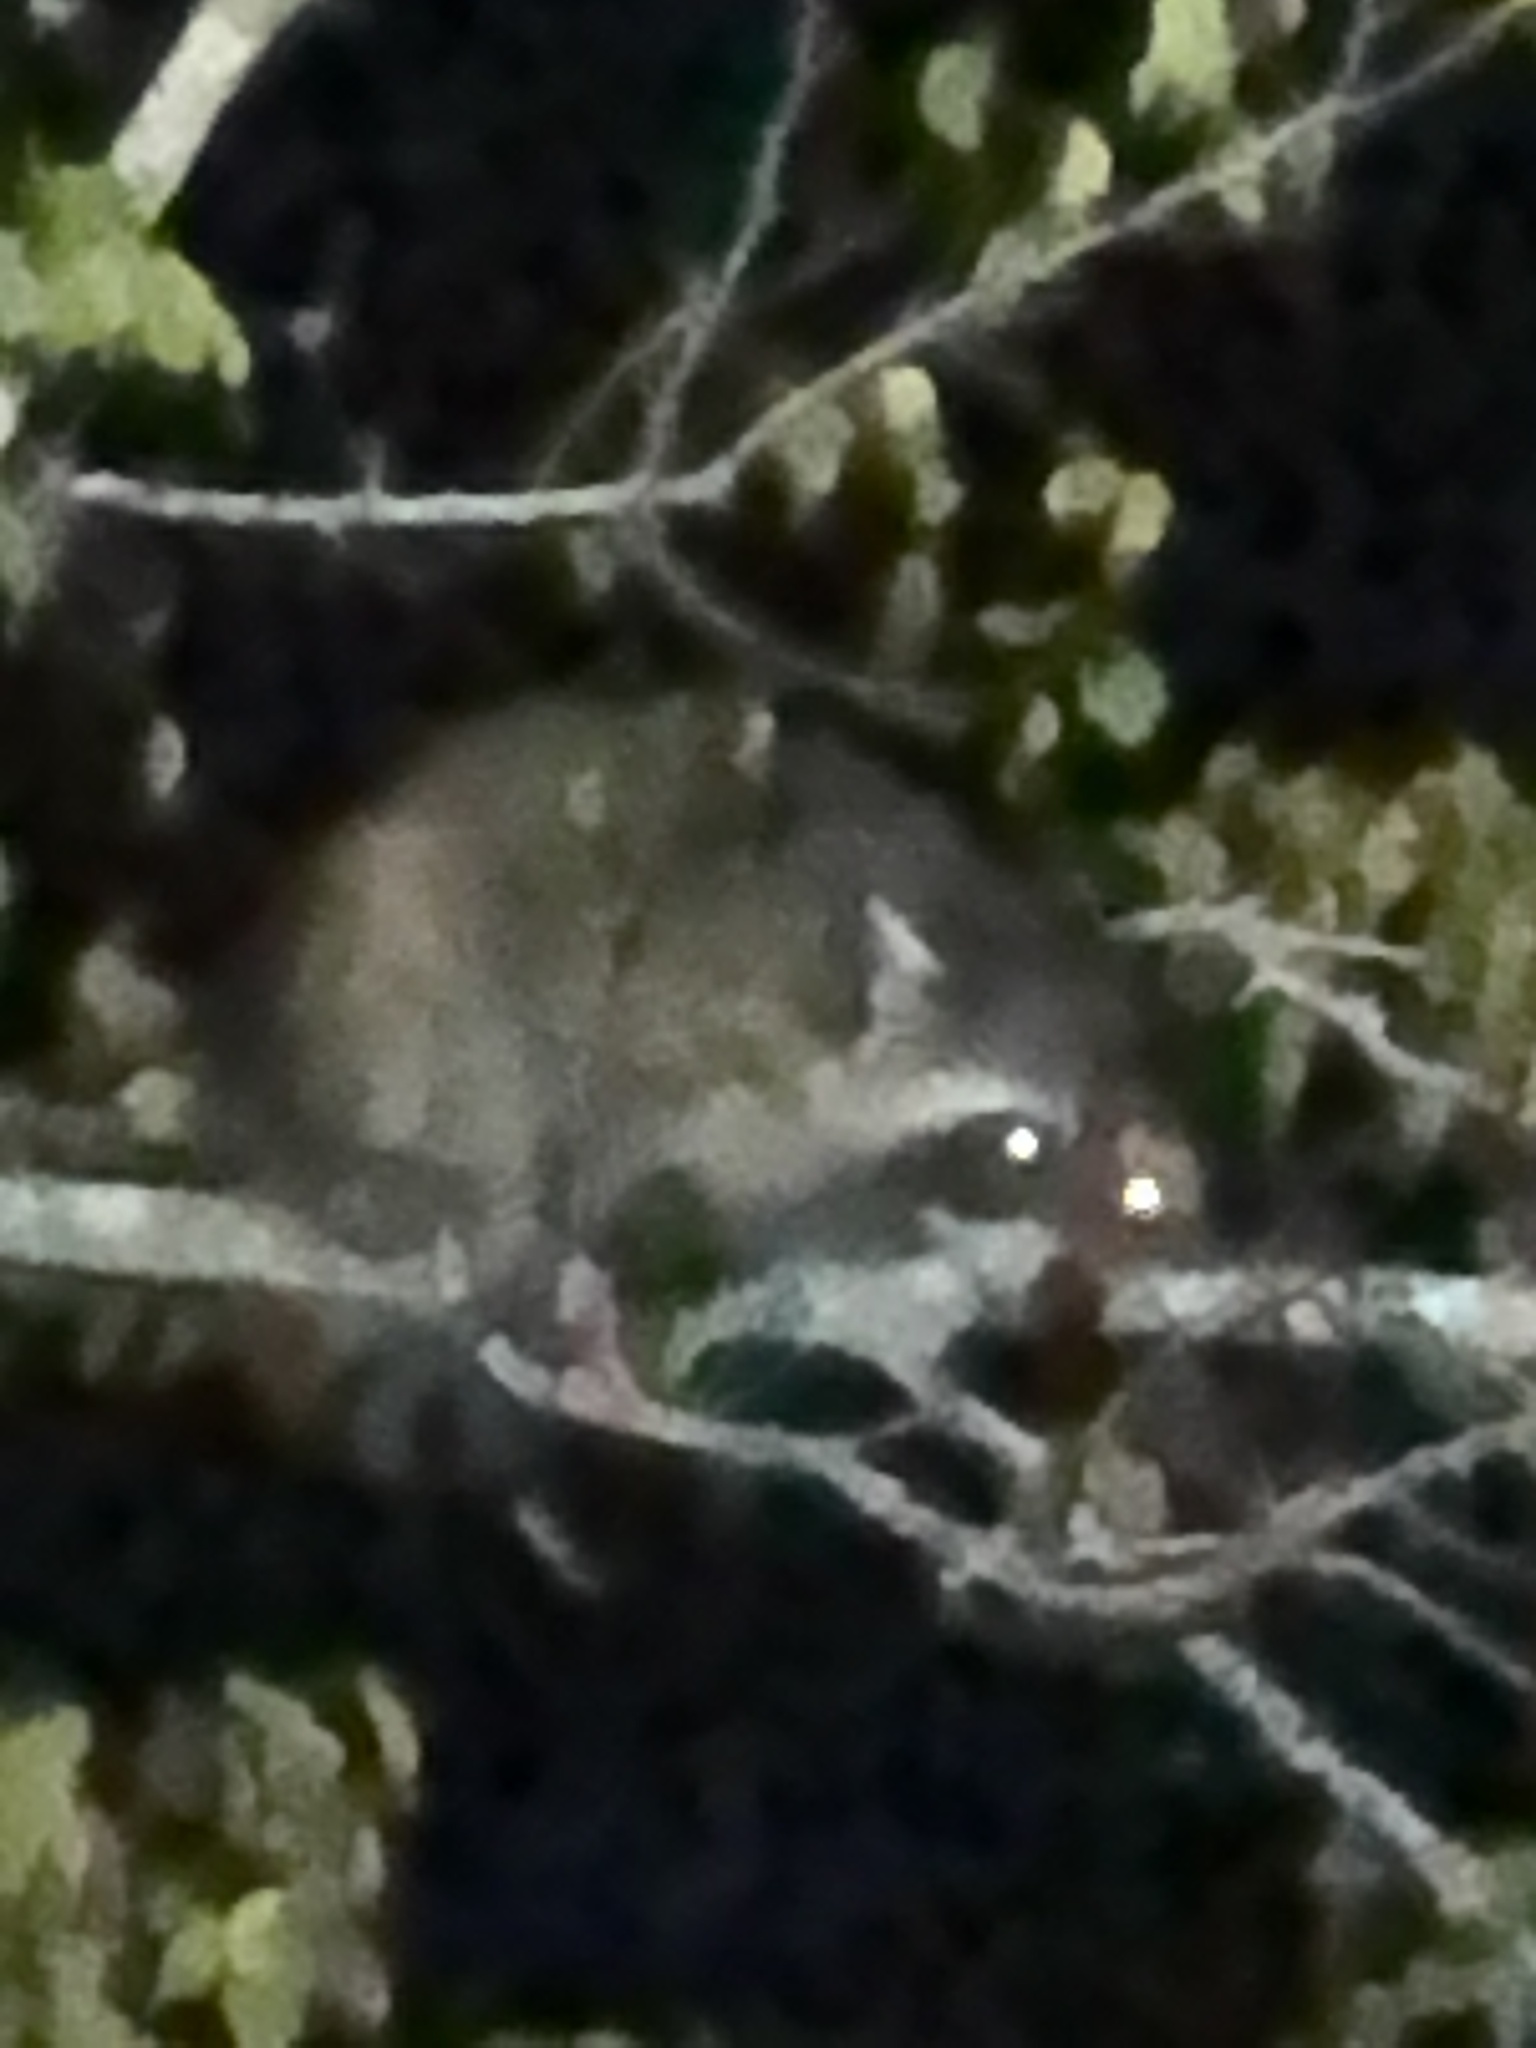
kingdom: Animalia
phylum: Chordata
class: Mammalia
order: Carnivora
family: Procyonidae
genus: Procyon
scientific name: Procyon lotor
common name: Raccoon
